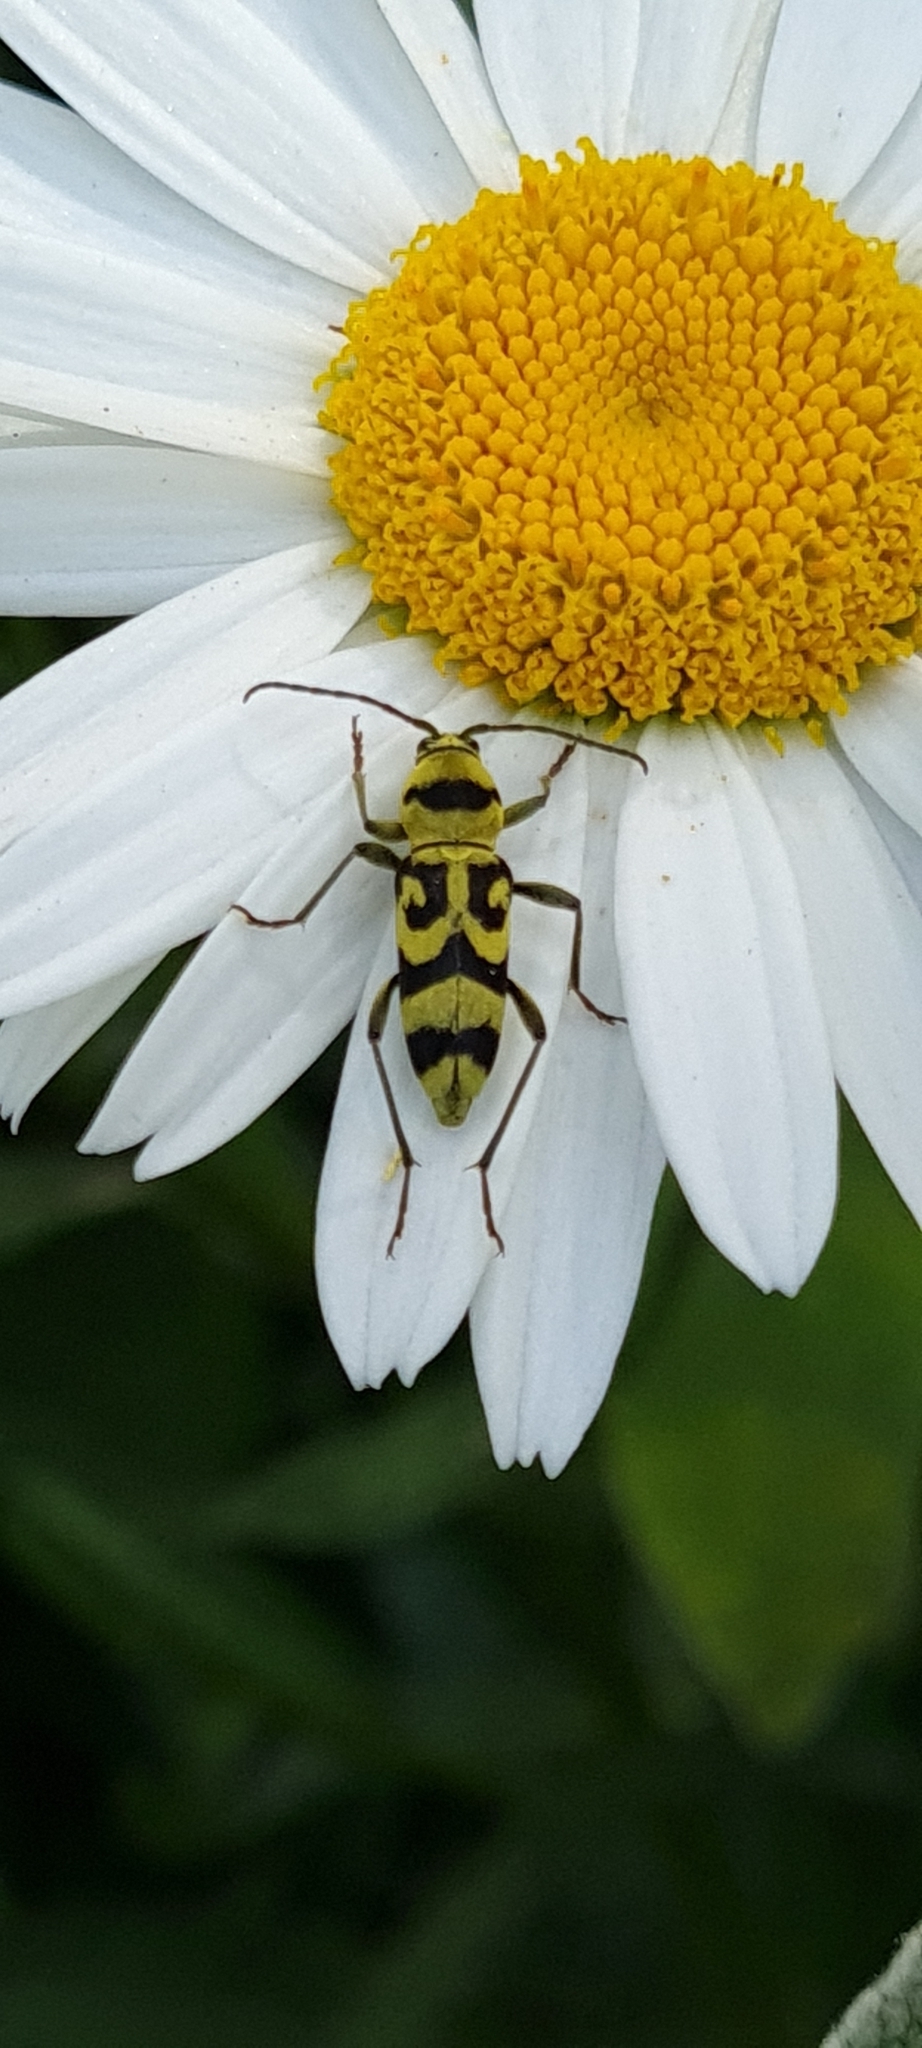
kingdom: Animalia
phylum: Arthropoda
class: Insecta
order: Coleoptera
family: Cerambycidae
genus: Chlorophorus
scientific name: Chlorophorus varius
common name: Grape wood borer
